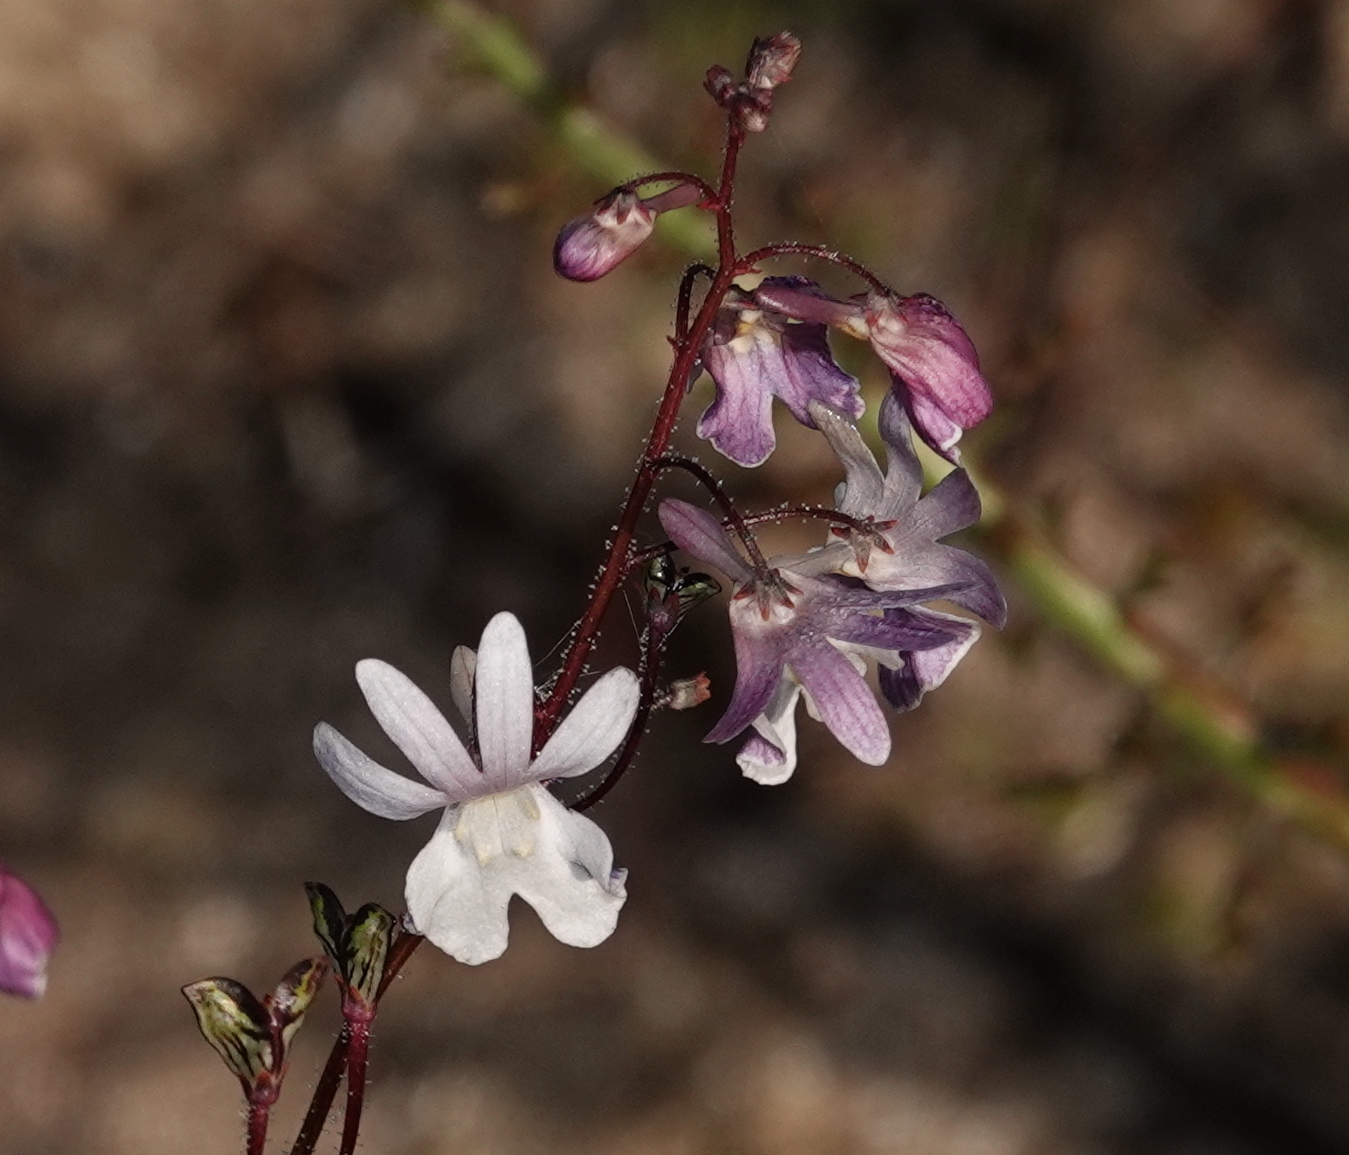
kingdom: Plantae
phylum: Tracheophyta
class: Magnoliopsida
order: Lamiales
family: Scrophulariaceae
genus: Nemesia
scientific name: Nemesia bicornis
